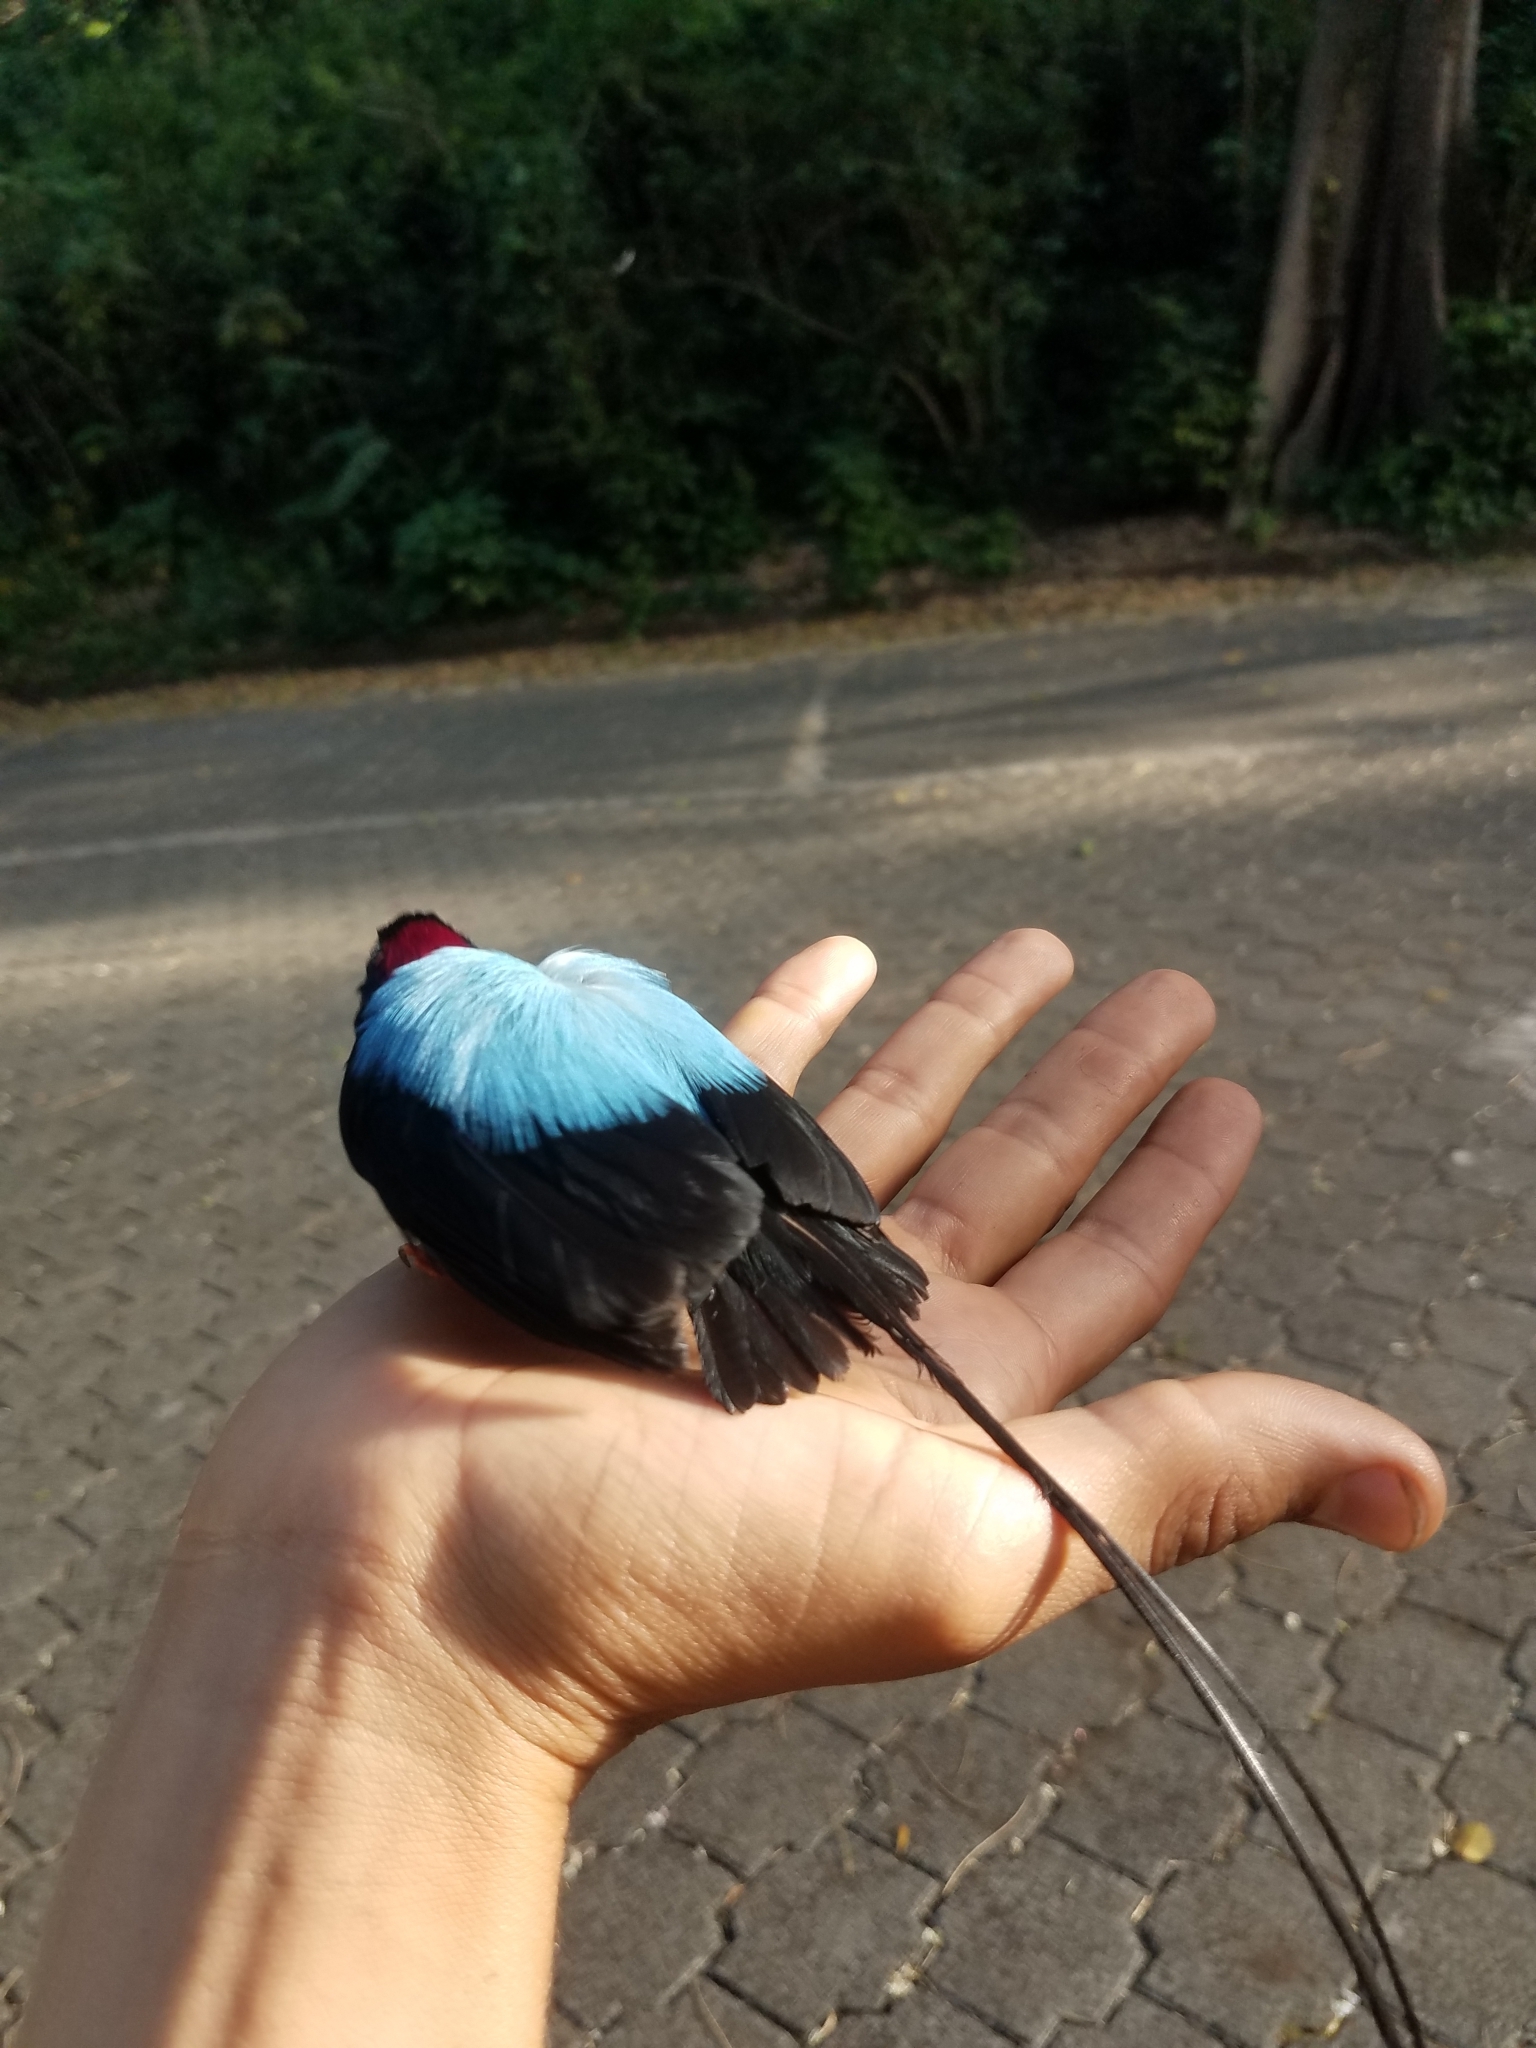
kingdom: Animalia
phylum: Chordata
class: Aves
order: Passeriformes
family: Pipridae
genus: Chiroxiphia
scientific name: Chiroxiphia linearis
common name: Long-tailed manakin
